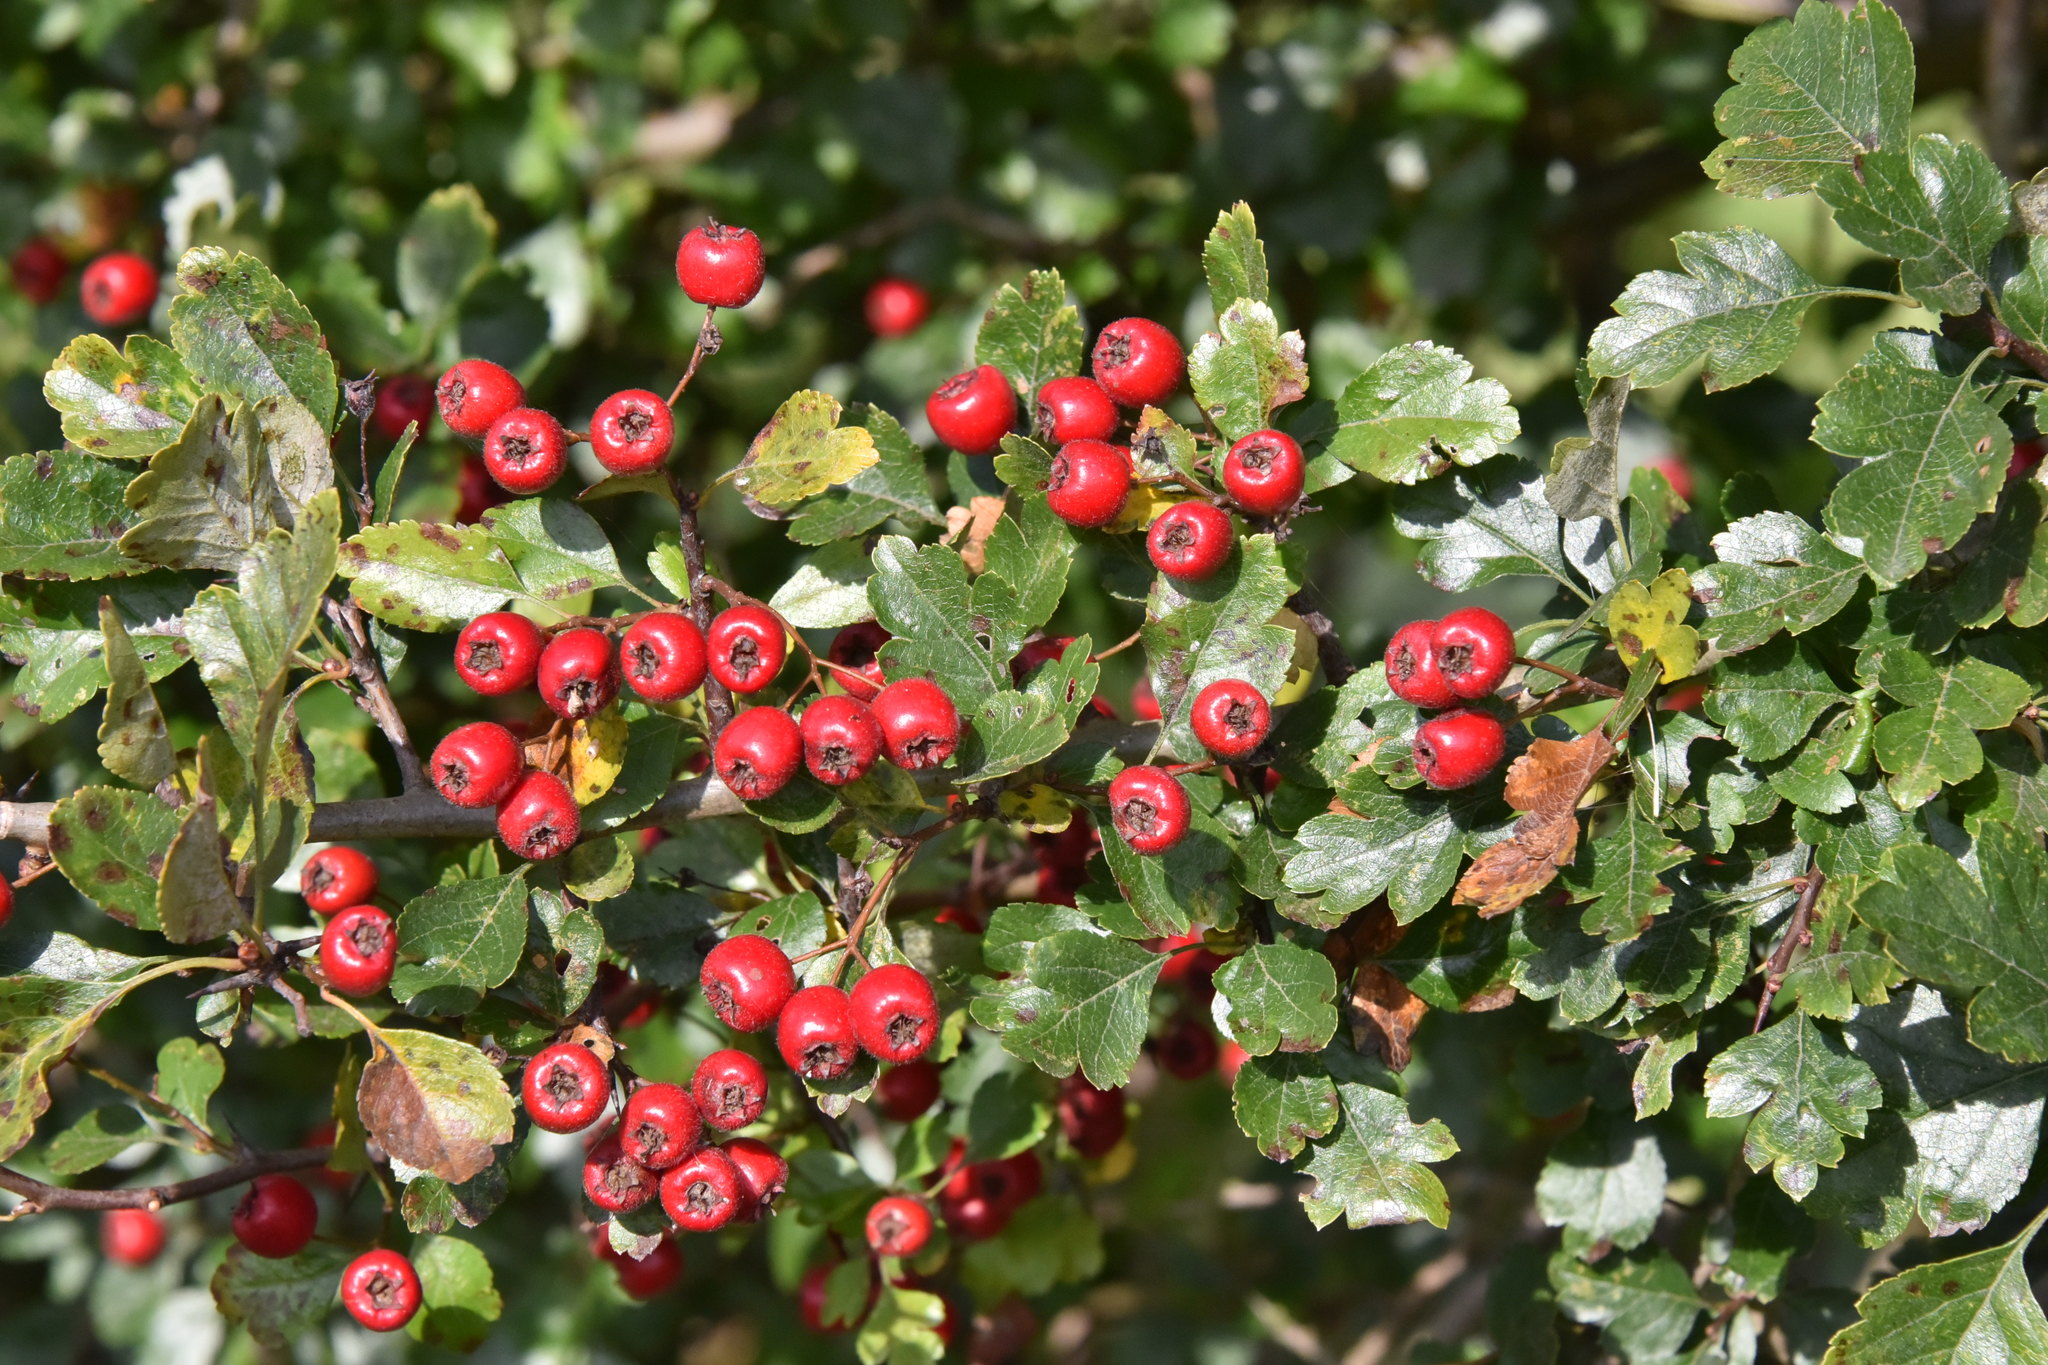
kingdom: Plantae
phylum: Tracheophyta
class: Magnoliopsida
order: Rosales
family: Rosaceae
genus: Crataegus
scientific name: Crataegus laevigata
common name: Midland hawthorn
